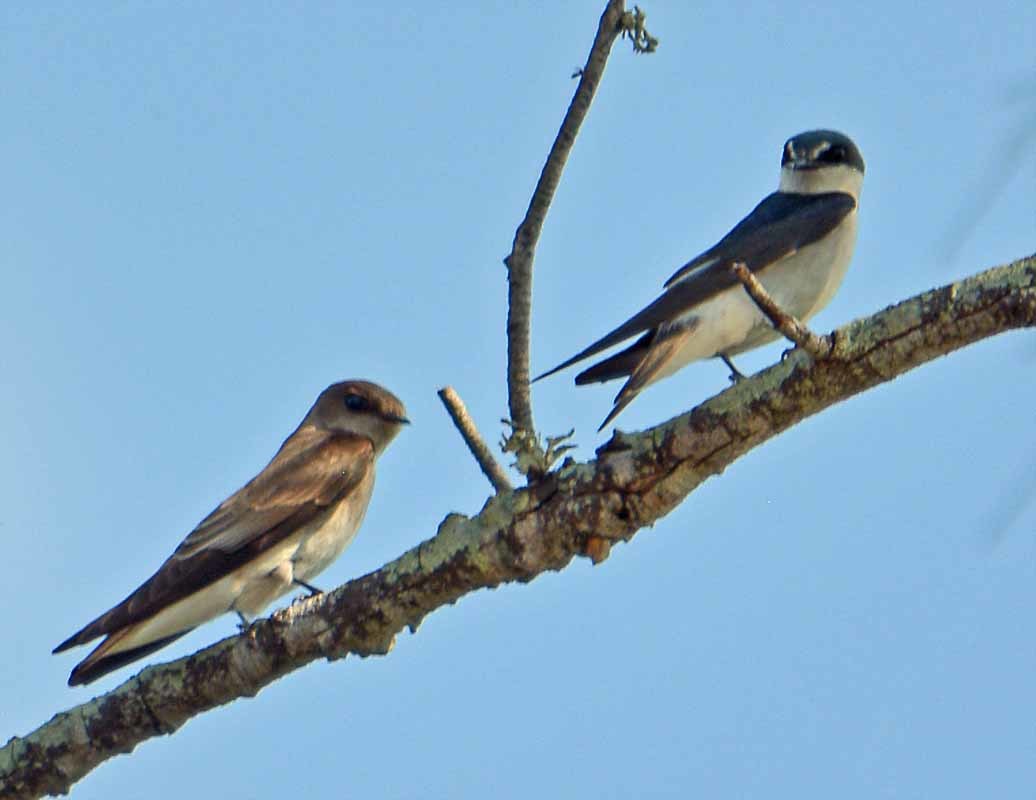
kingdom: Animalia
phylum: Chordata
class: Aves
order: Passeriformes
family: Hirundinidae
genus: Tachycineta
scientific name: Tachycineta albilinea
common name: Mangrove swallow
